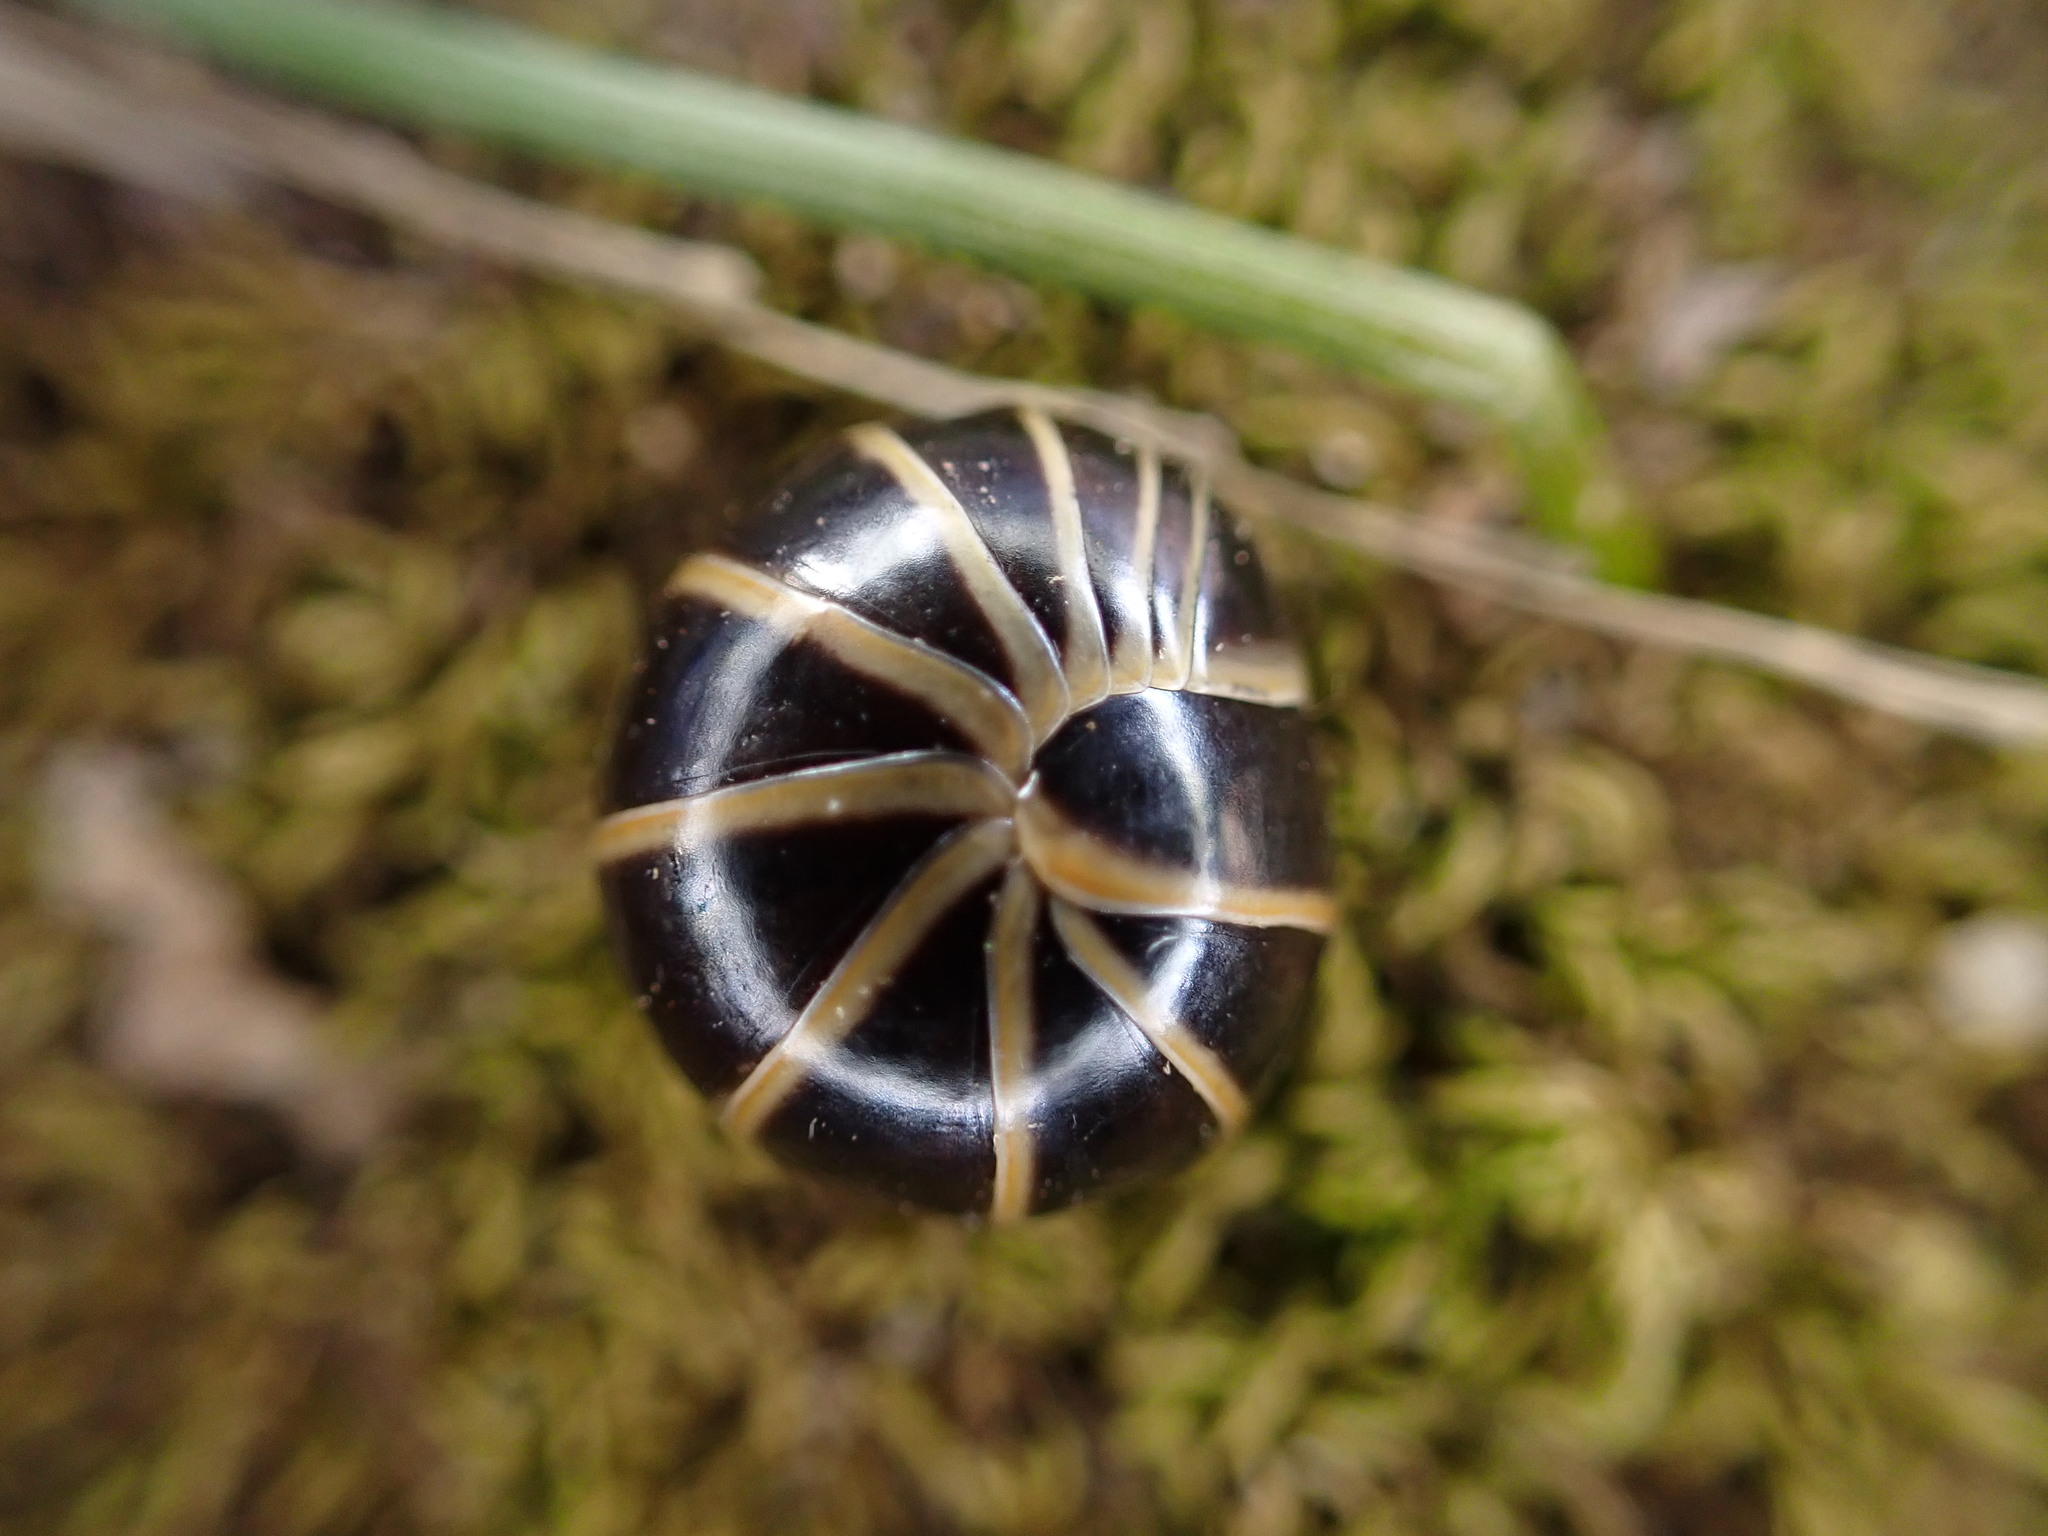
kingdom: Animalia
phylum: Arthropoda
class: Diplopoda
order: Glomerida
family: Glomeridae
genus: Glomeris
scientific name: Glomeris marginata
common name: Bordered pill millipede
